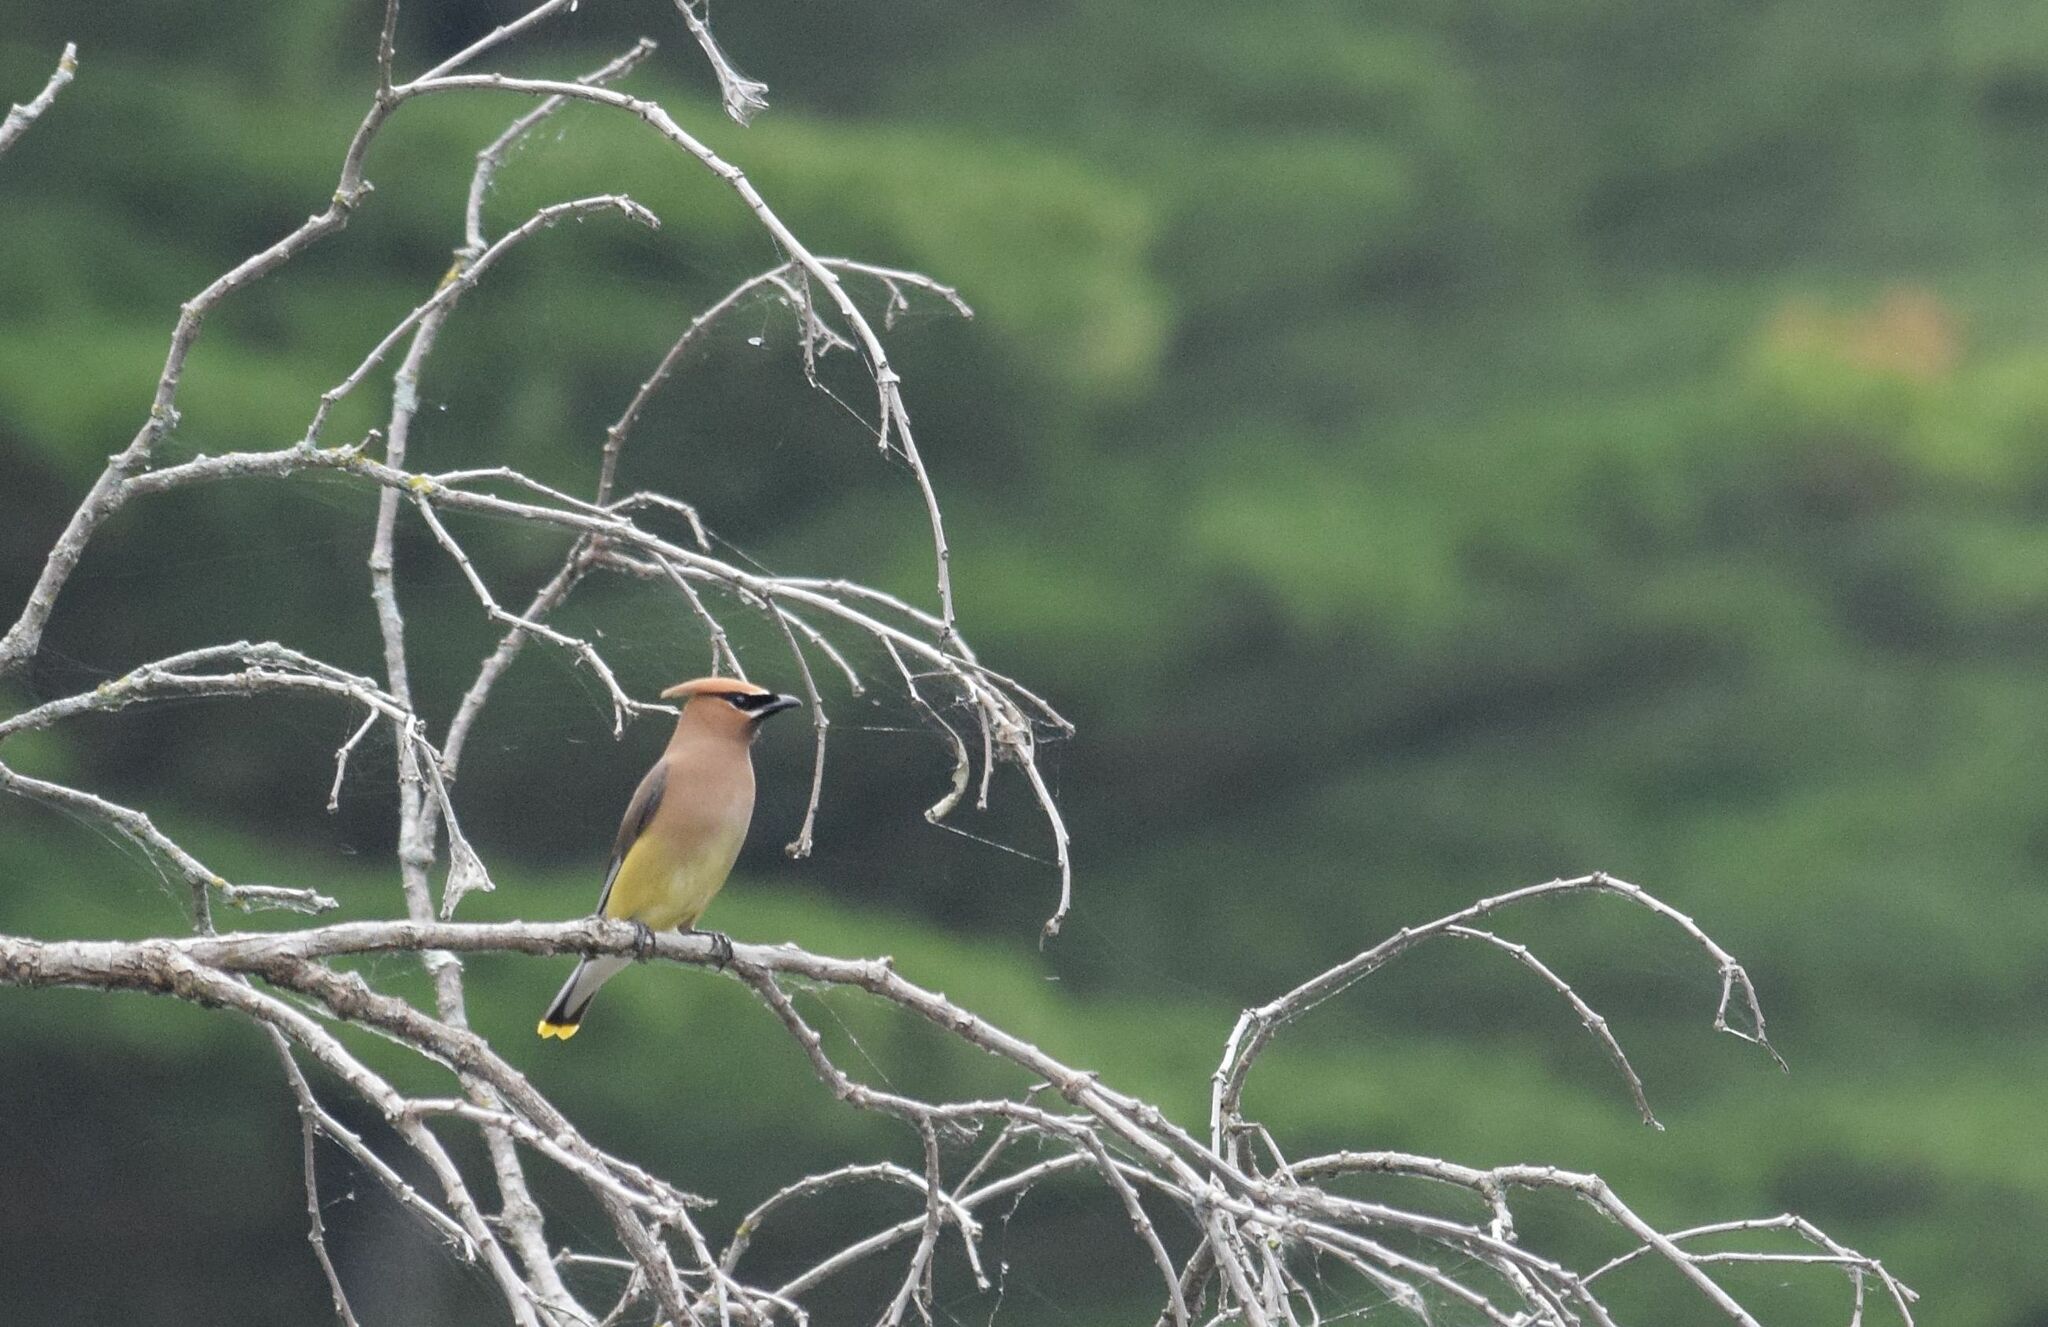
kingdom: Animalia
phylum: Chordata
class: Aves
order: Passeriformes
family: Bombycillidae
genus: Bombycilla
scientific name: Bombycilla cedrorum
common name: Cedar waxwing
